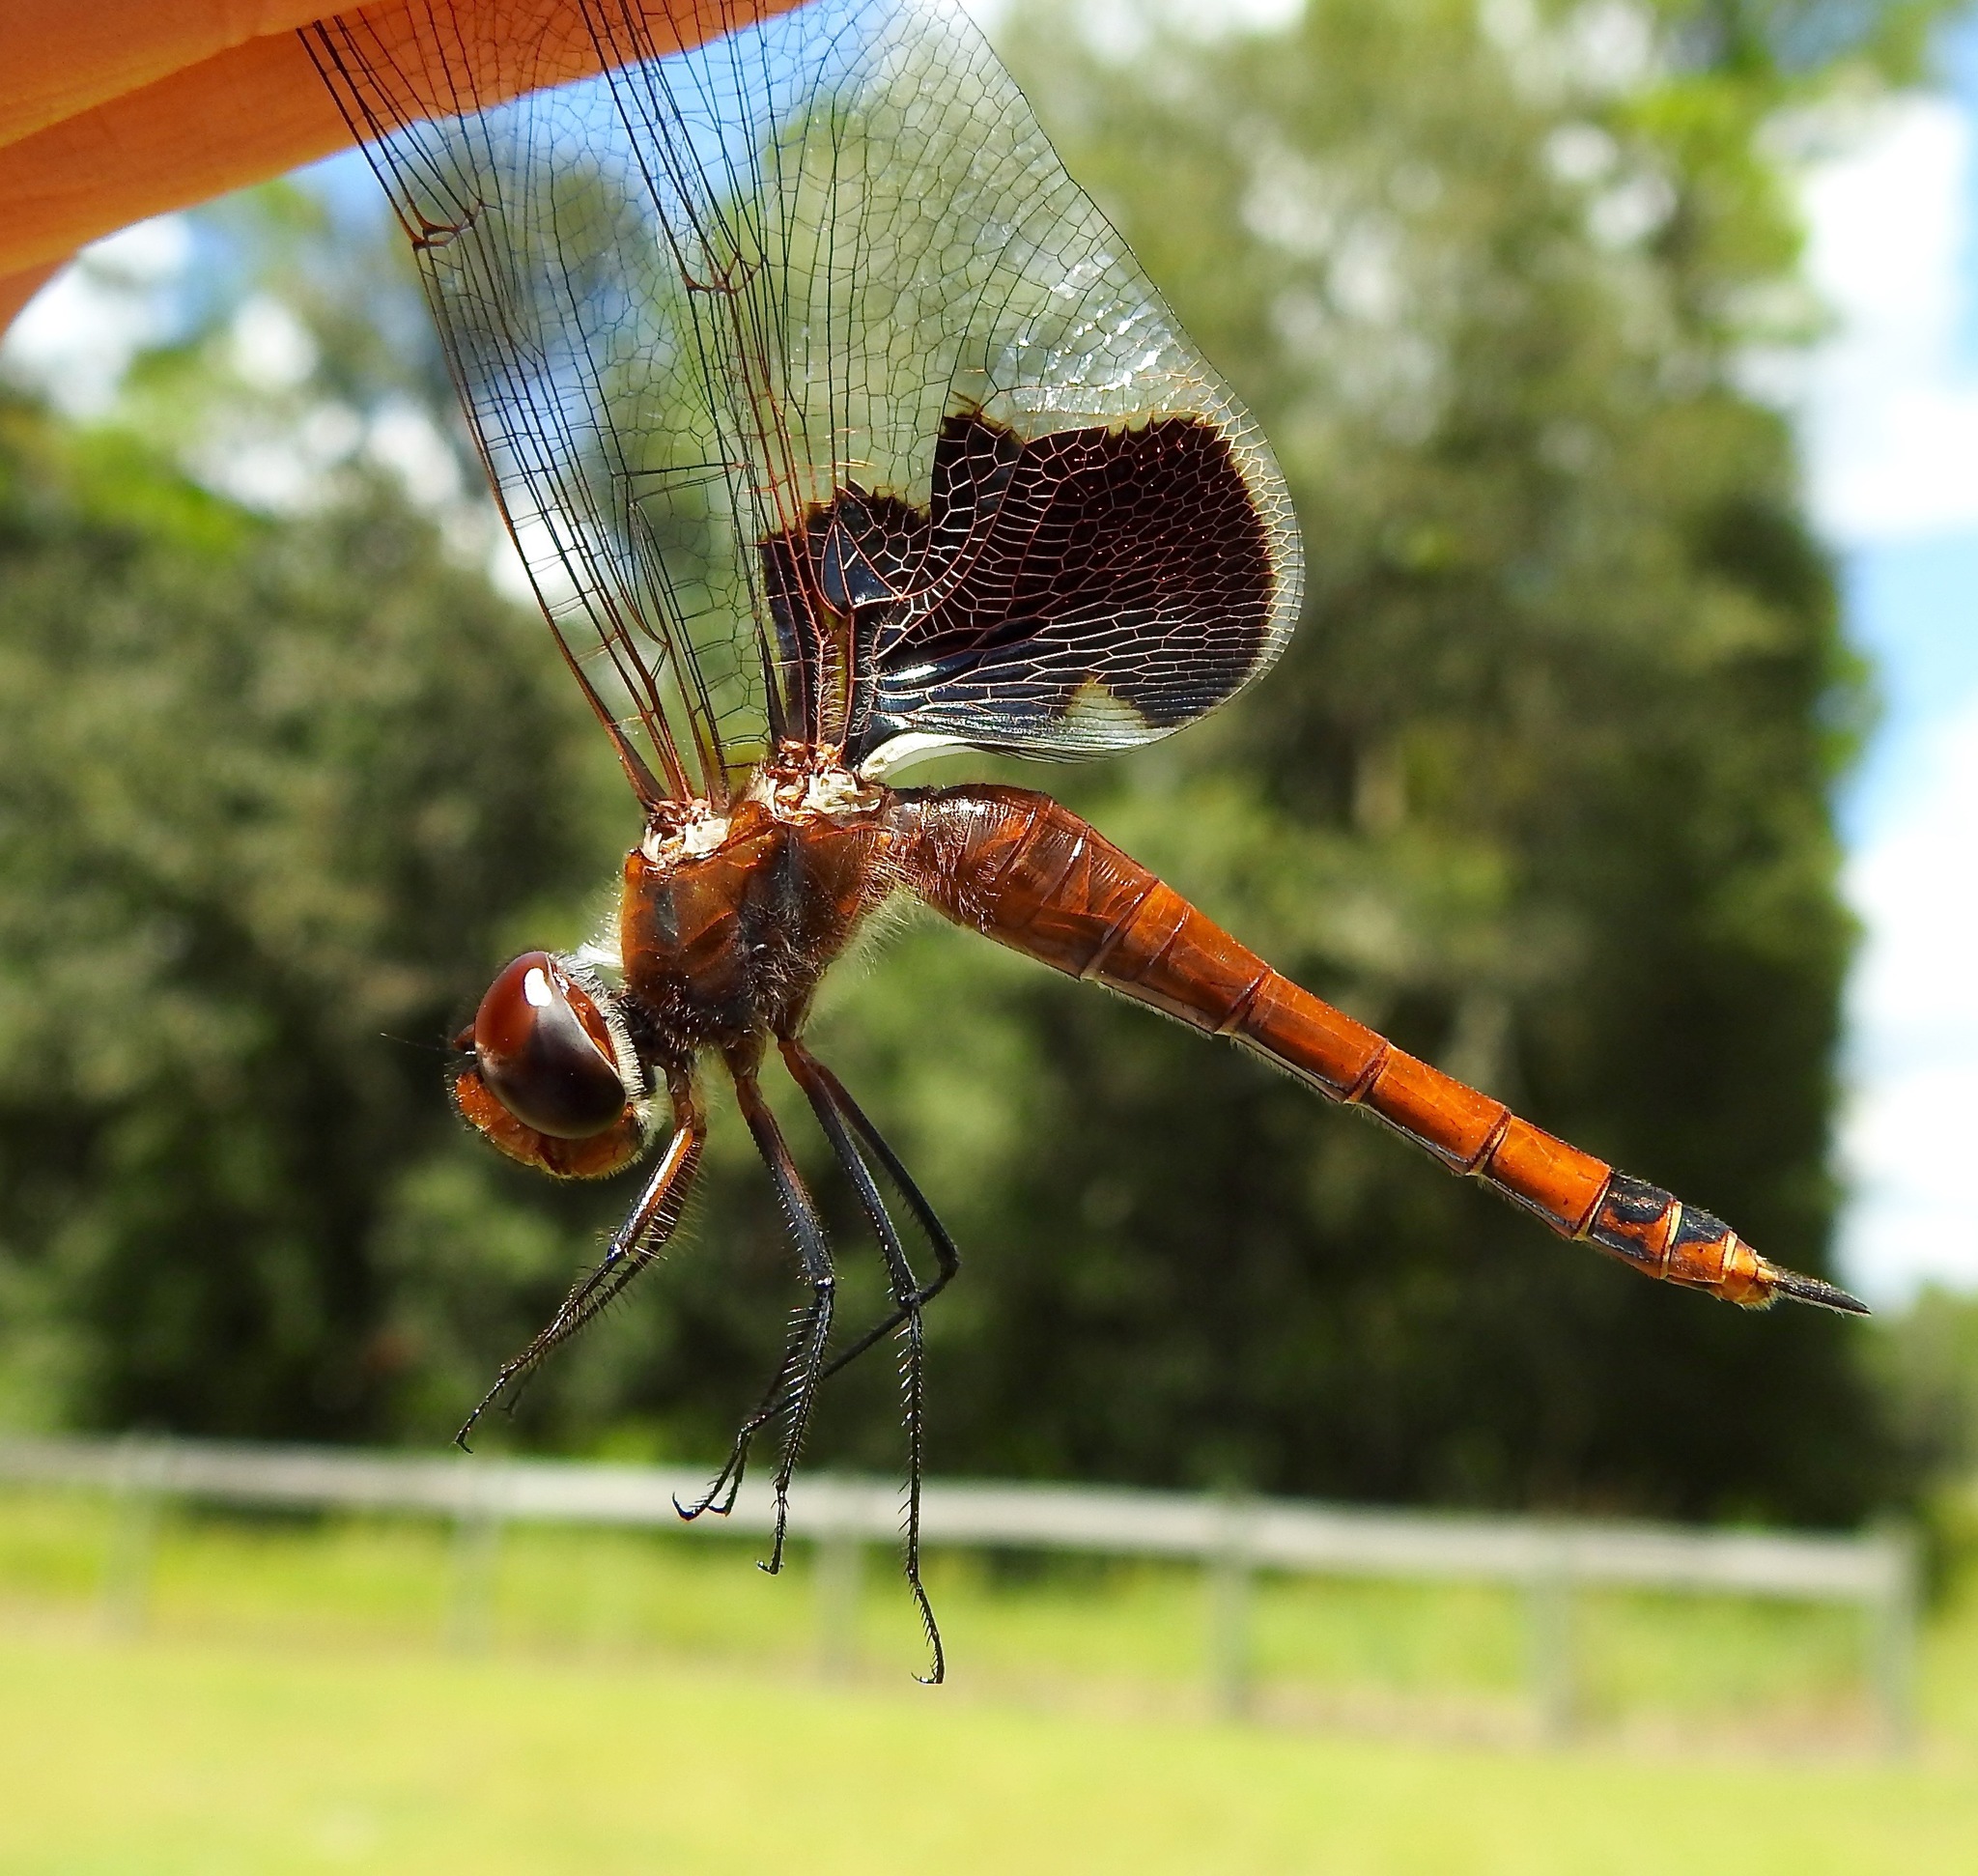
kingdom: Animalia
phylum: Arthropoda
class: Insecta
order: Odonata
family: Libellulidae
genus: Tramea
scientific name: Tramea carolina
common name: Carolina saddlebags
